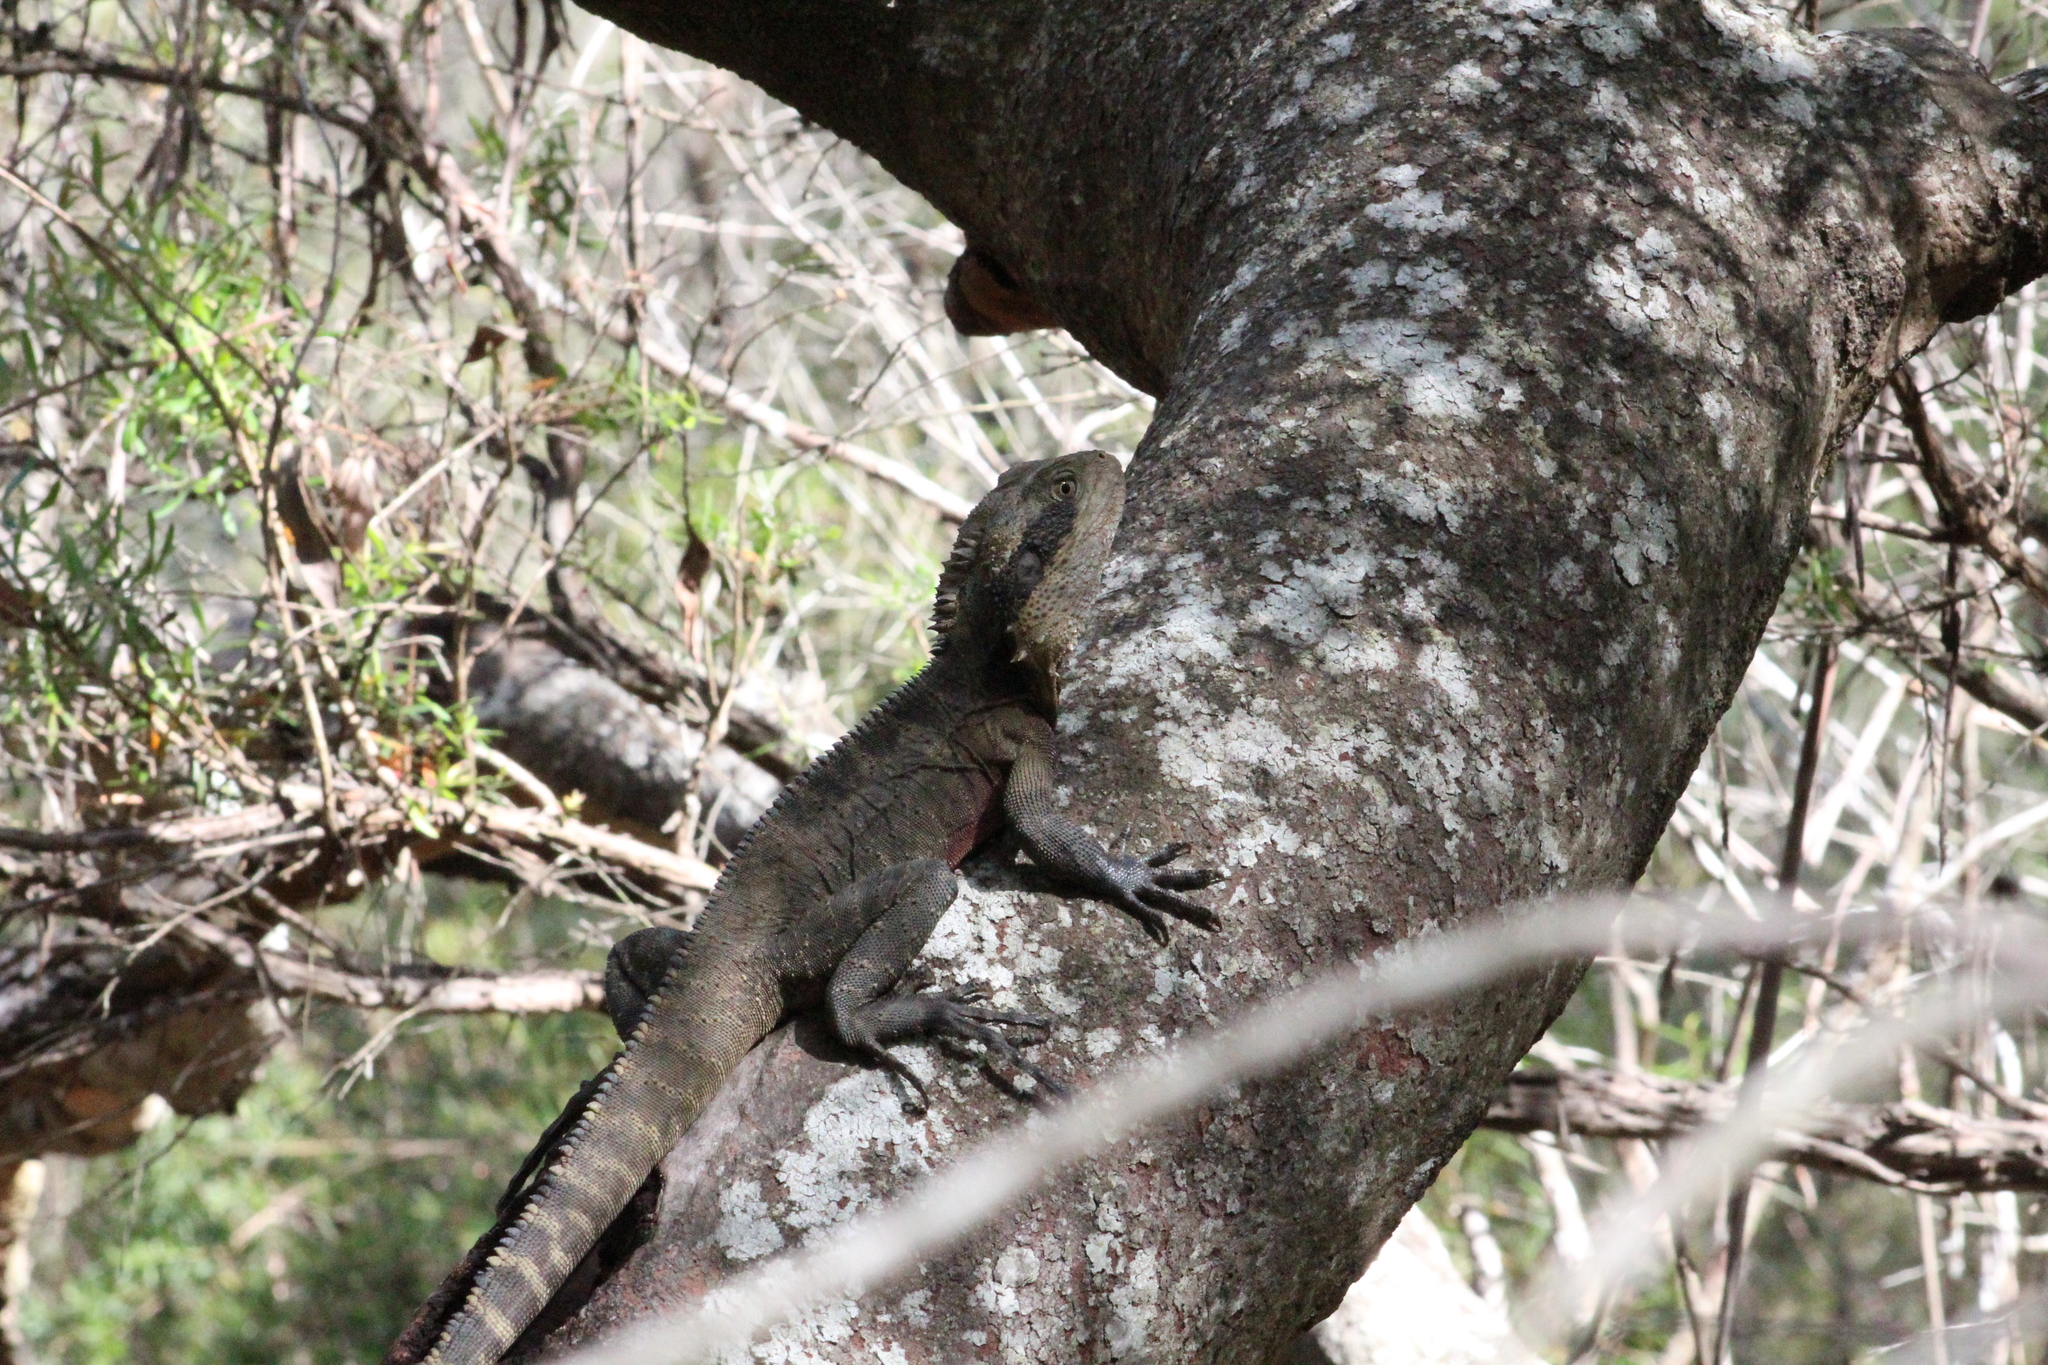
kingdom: Animalia
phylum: Chordata
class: Squamata
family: Agamidae
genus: Intellagama
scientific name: Intellagama lesueurii
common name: Eastern water dragon
